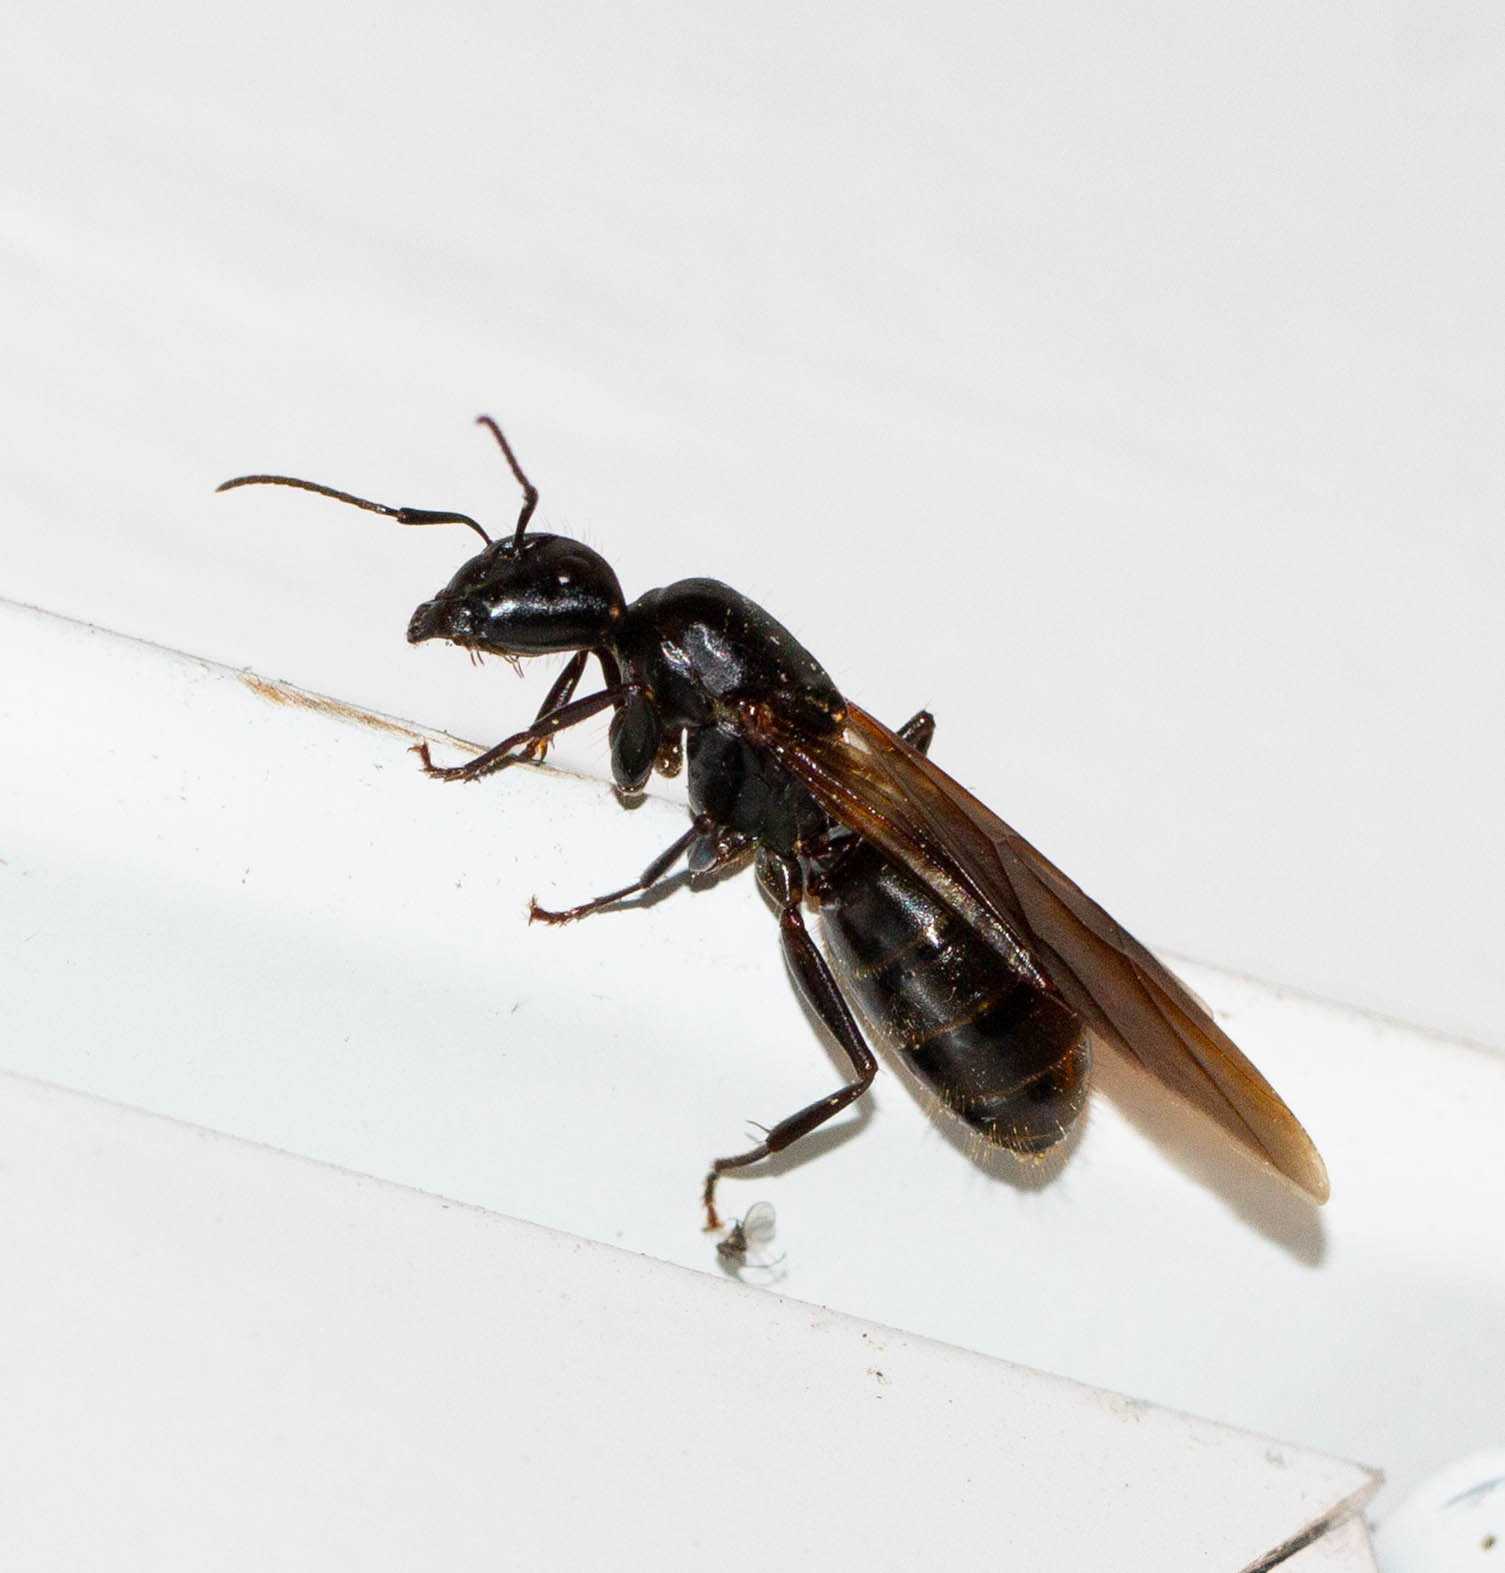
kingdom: Animalia
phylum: Arthropoda
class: Insecta
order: Hymenoptera
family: Formicidae
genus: Camponotus
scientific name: Camponotus pennsylvanicus
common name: Black carpenter ant
